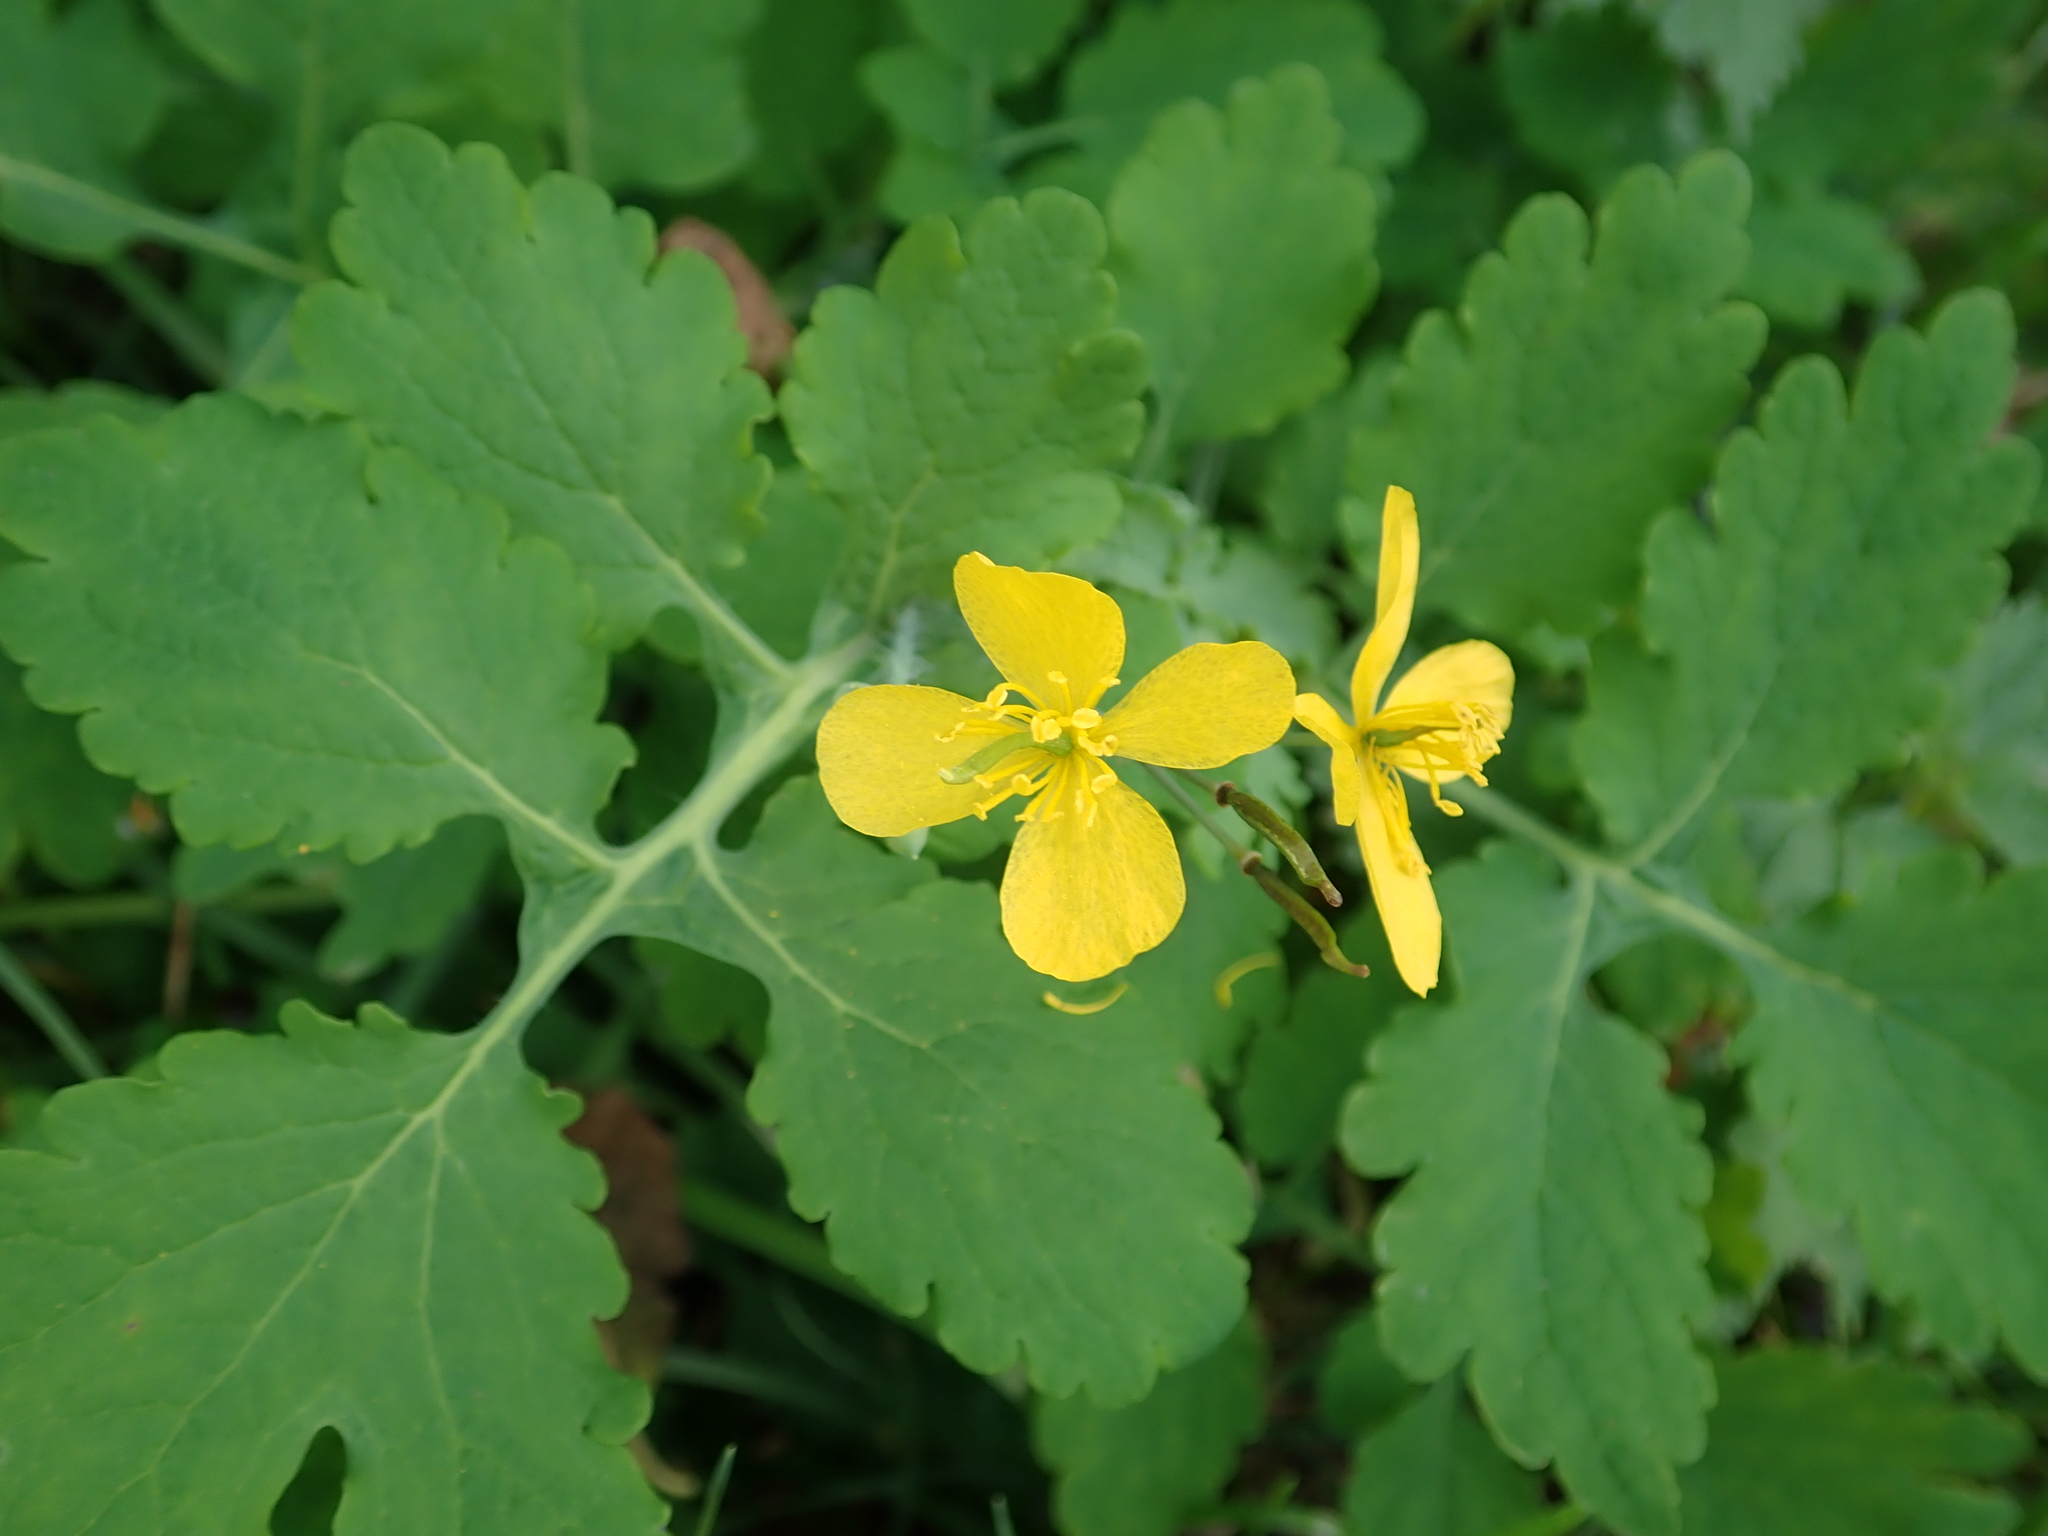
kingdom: Plantae
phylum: Tracheophyta
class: Magnoliopsida
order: Ranunculales
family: Papaveraceae
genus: Chelidonium
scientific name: Chelidonium majus
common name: Greater celandine
